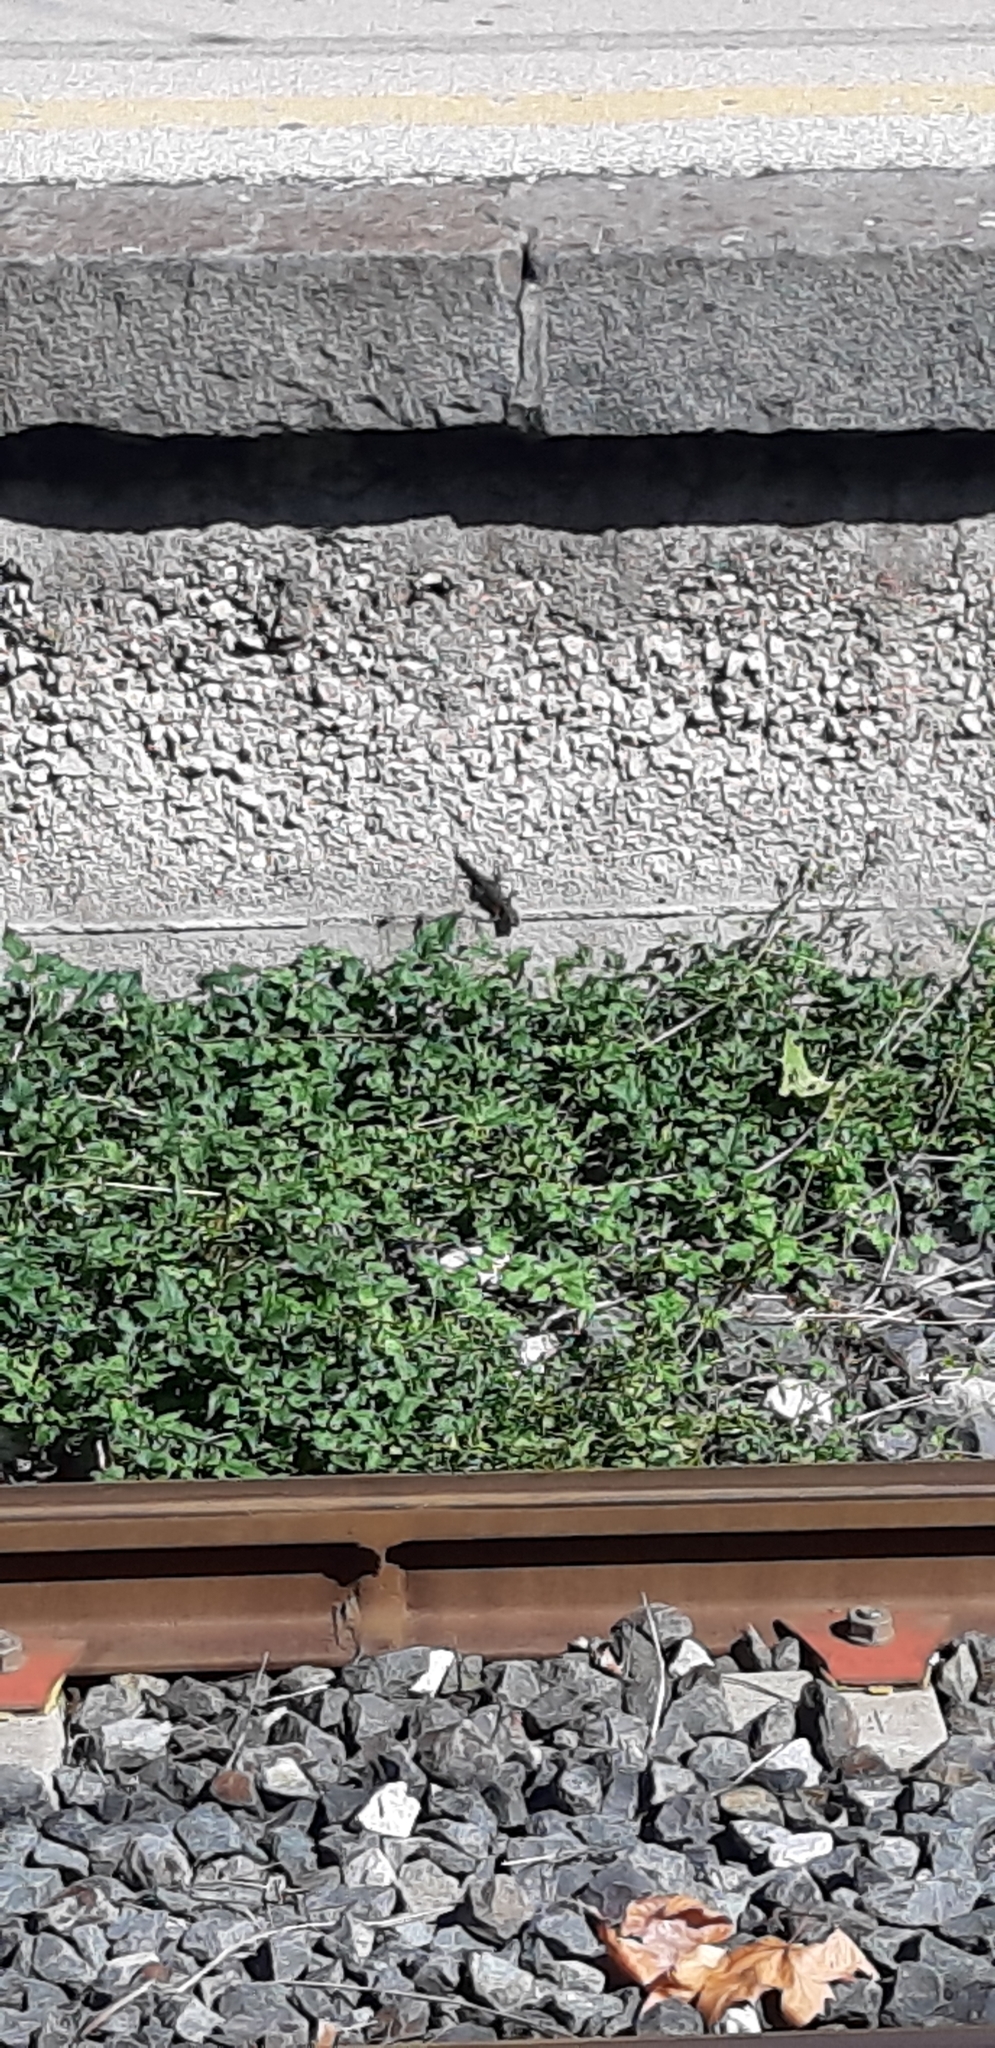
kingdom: Animalia
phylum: Chordata
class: Squamata
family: Phyllodactylidae
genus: Tarentola
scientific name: Tarentola mauritanica
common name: Moorish gecko
